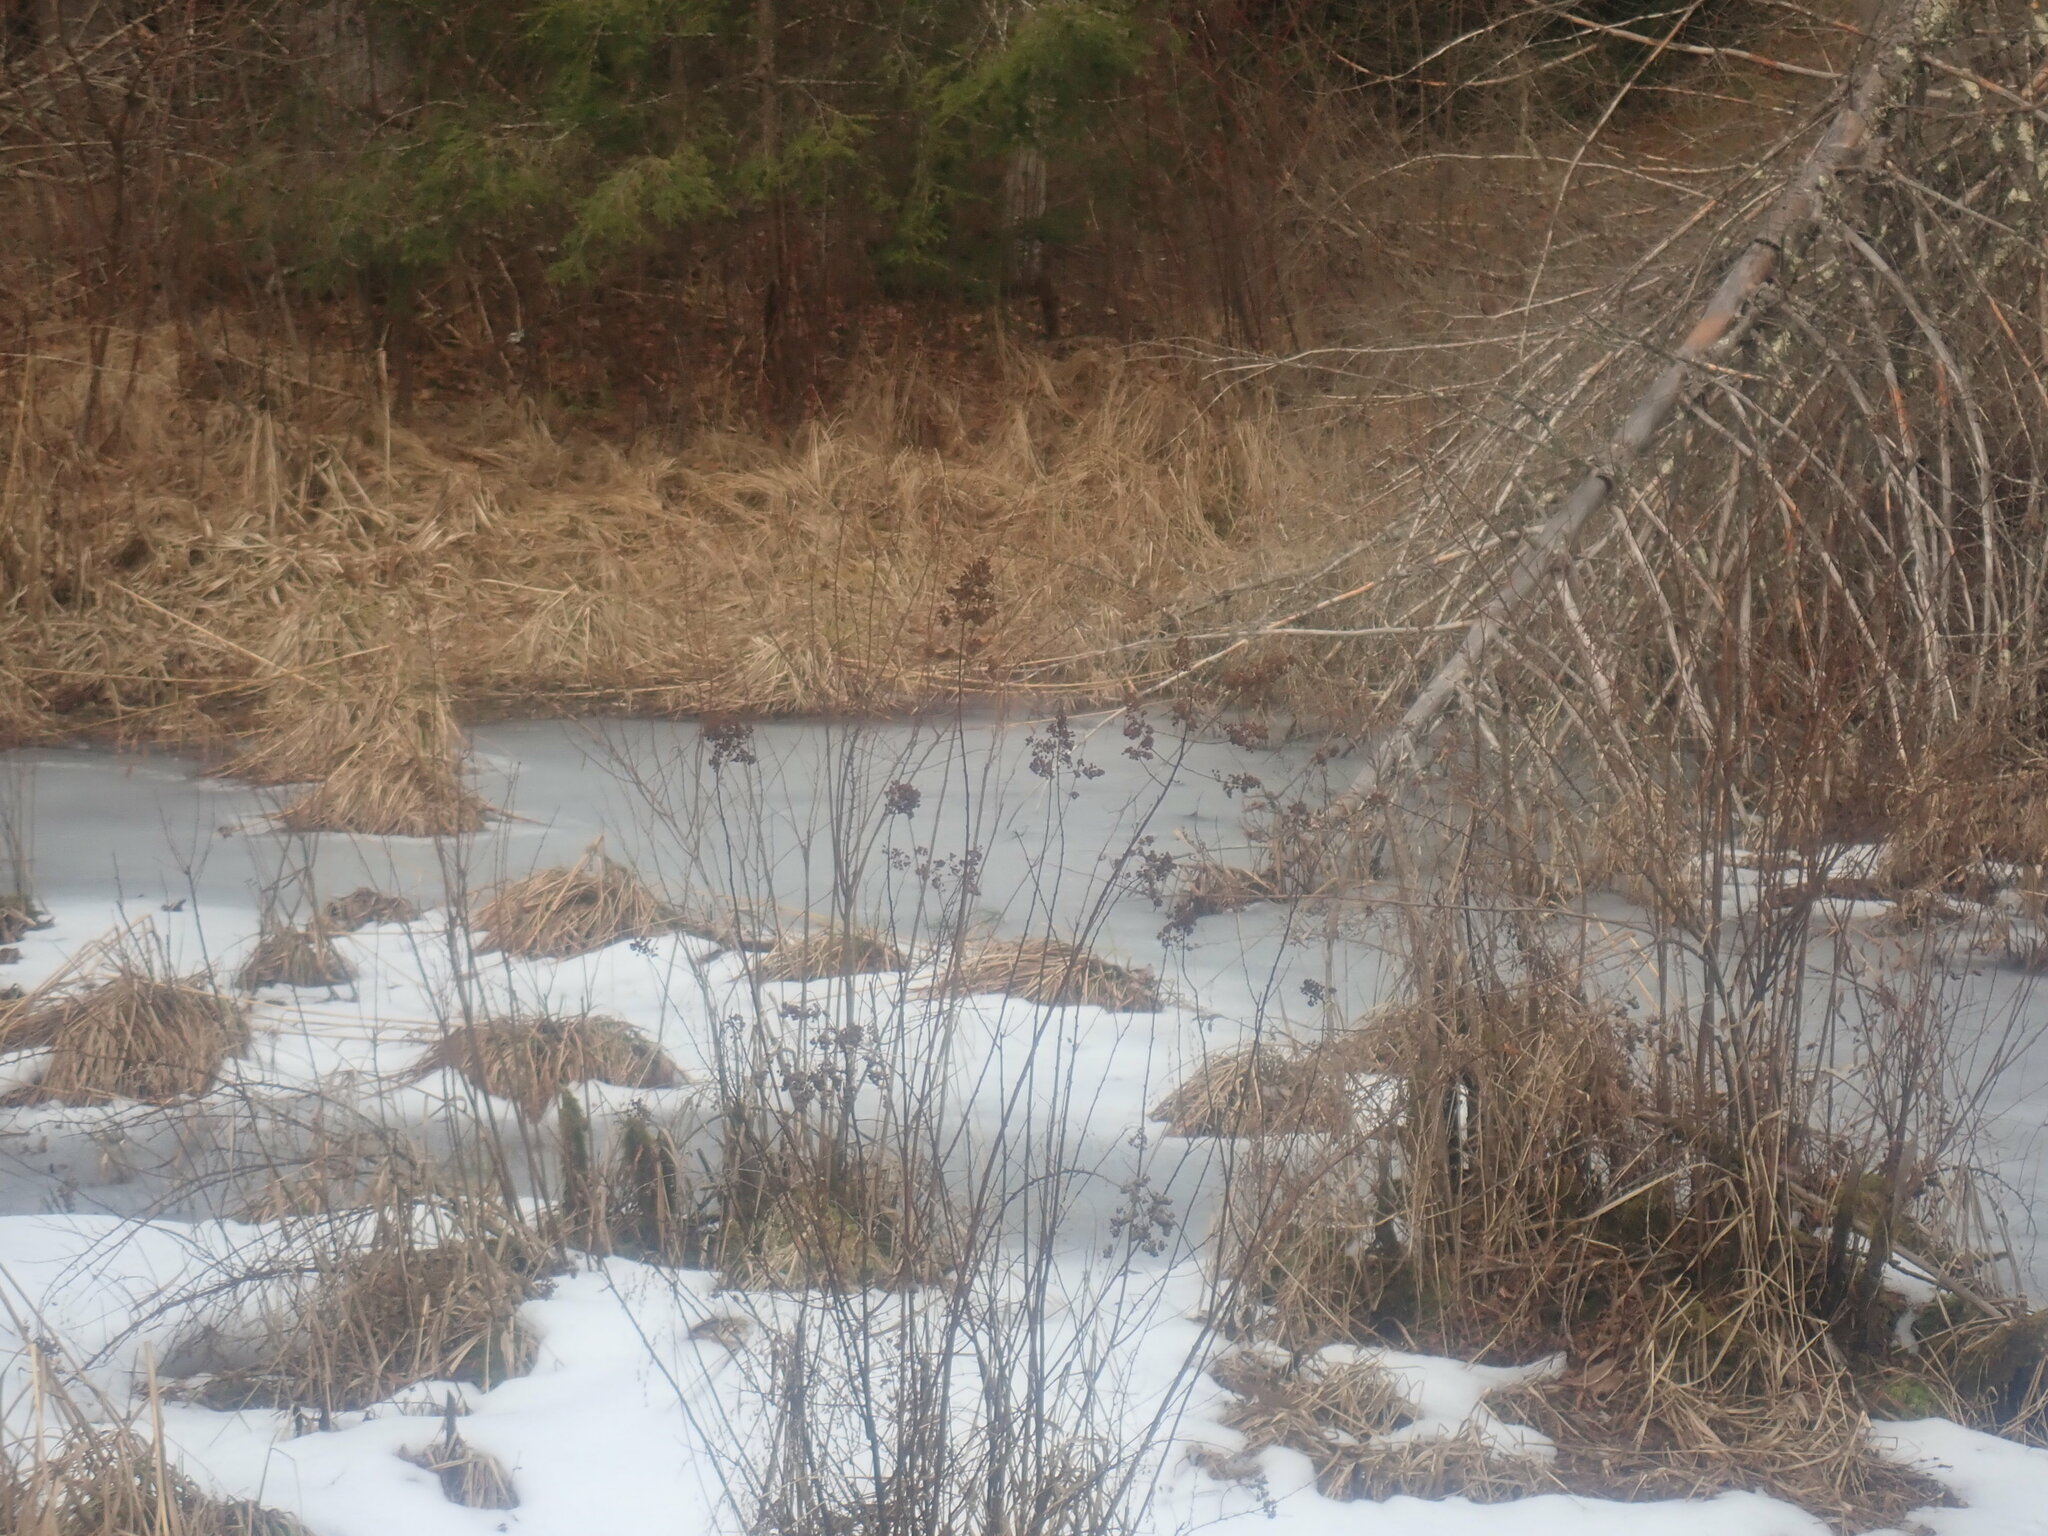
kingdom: Plantae
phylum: Tracheophyta
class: Magnoliopsida
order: Rosales
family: Rosaceae
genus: Spiraea
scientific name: Spiraea alba
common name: Pale bridewort
